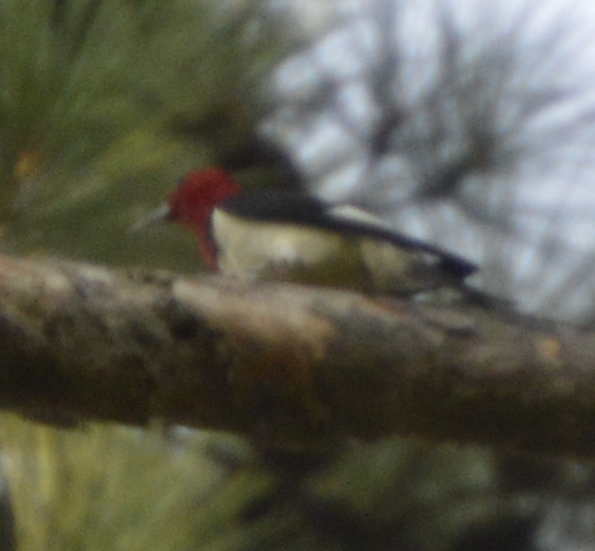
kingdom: Animalia
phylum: Chordata
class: Aves
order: Piciformes
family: Picidae
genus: Melanerpes
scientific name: Melanerpes erythrocephalus
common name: Red-headed woodpecker
